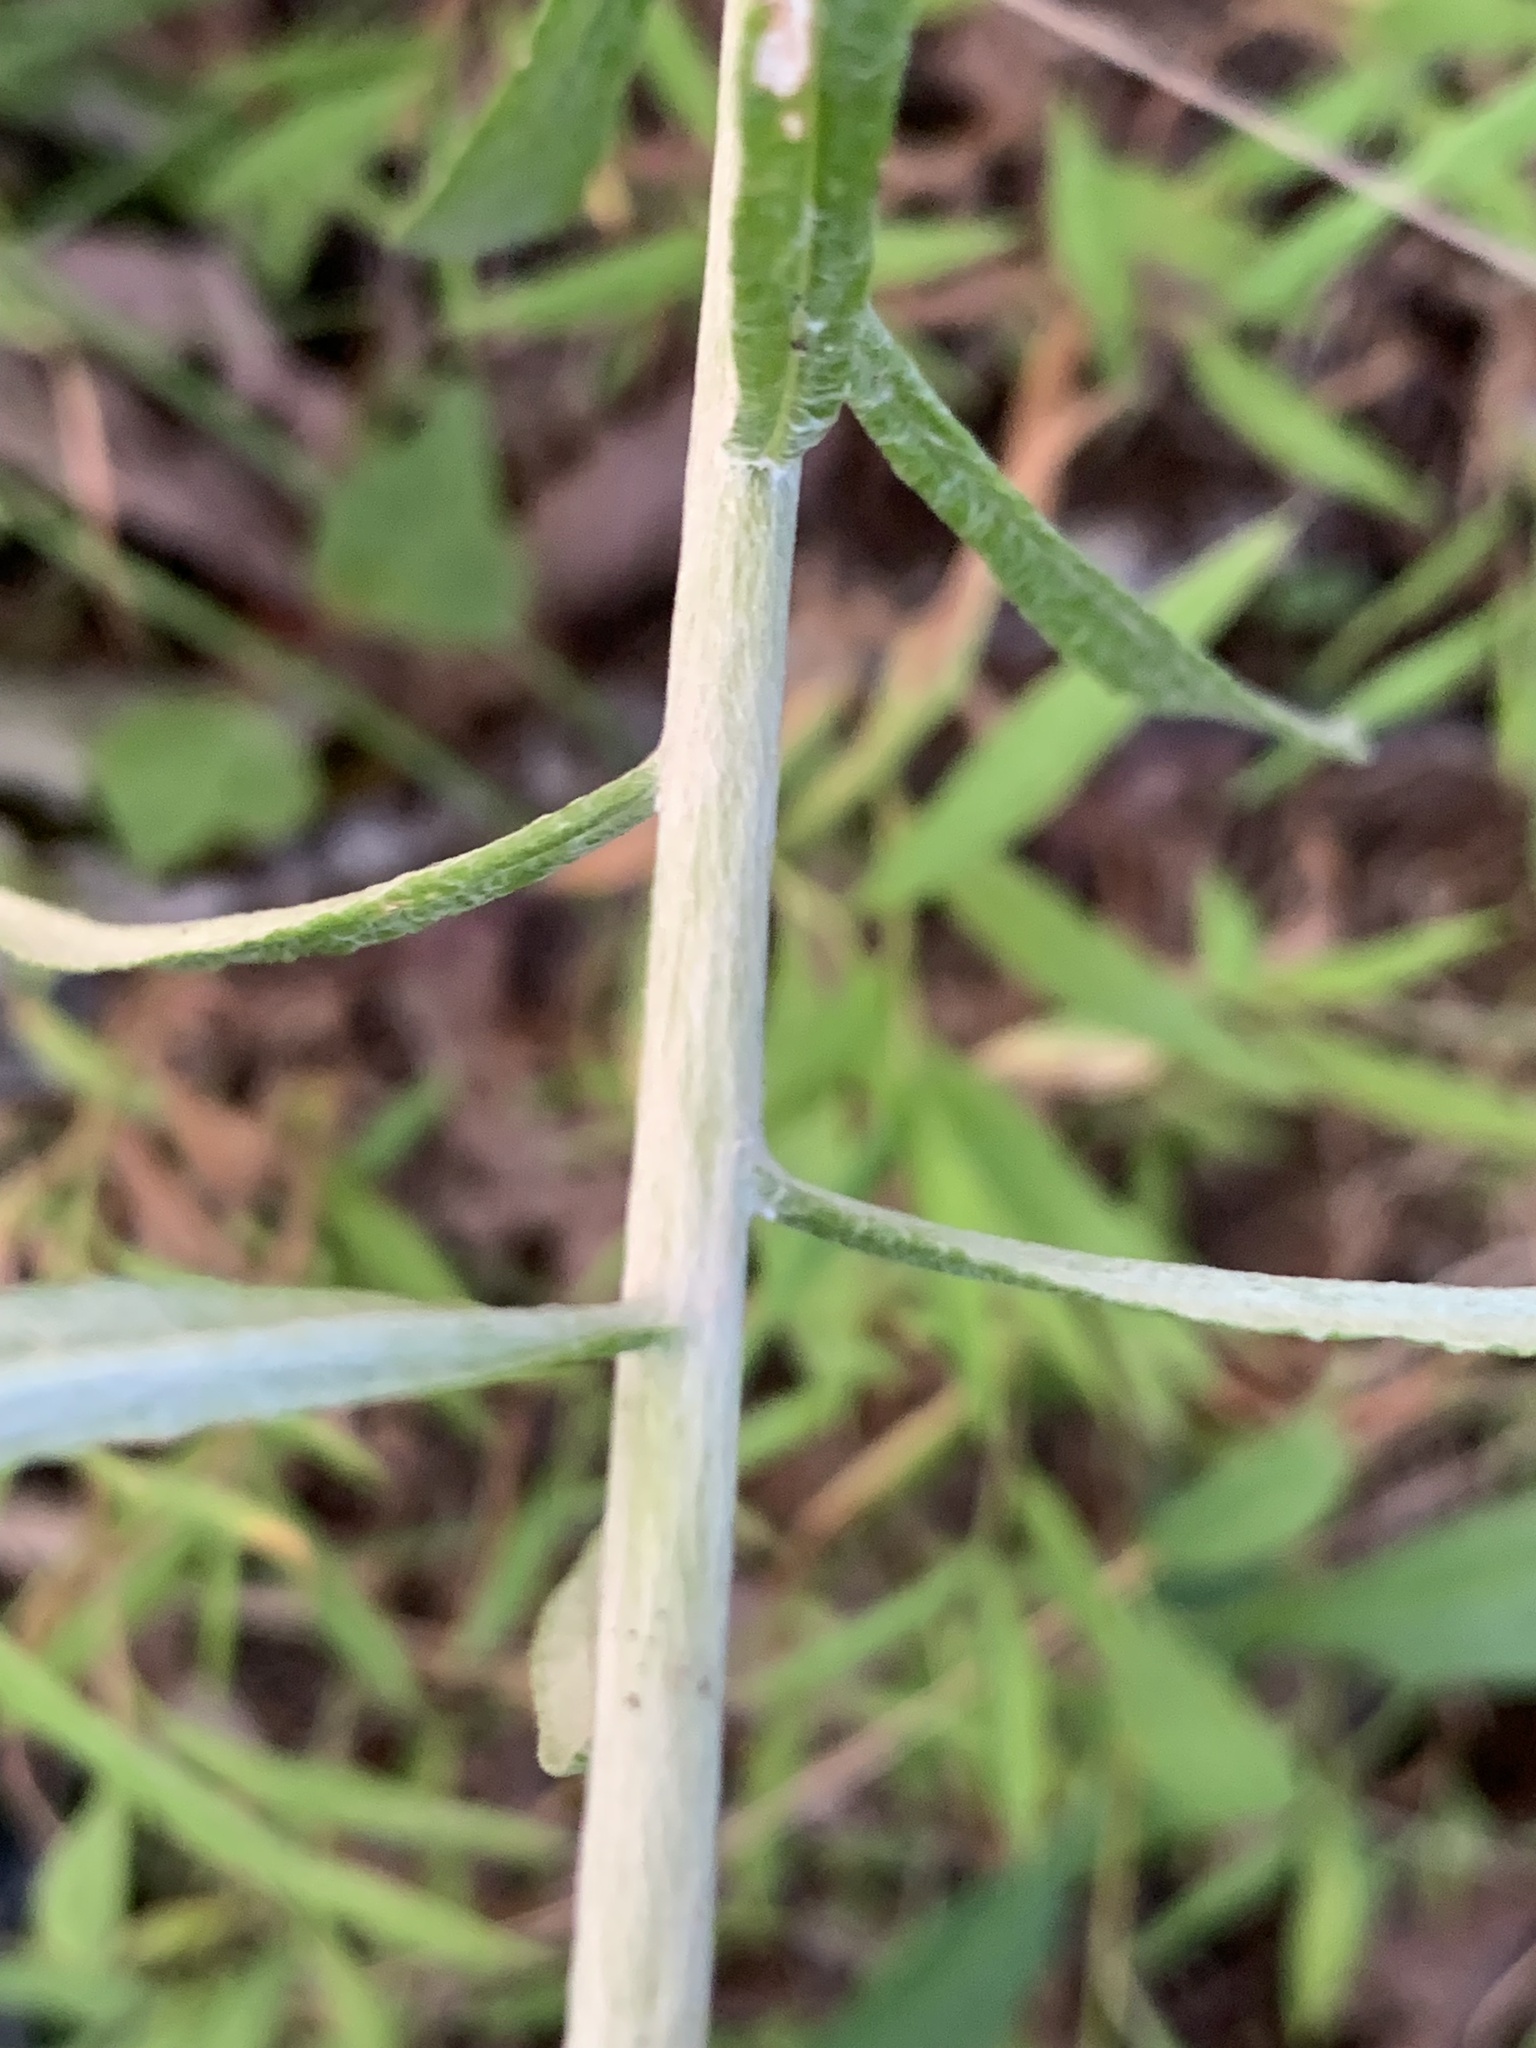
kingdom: Plantae
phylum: Tracheophyta
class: Magnoliopsida
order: Asterales
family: Asteraceae
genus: Pseudognaphalium
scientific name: Pseudognaphalium obtusifolium
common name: Eastern rabbit-tobacco
